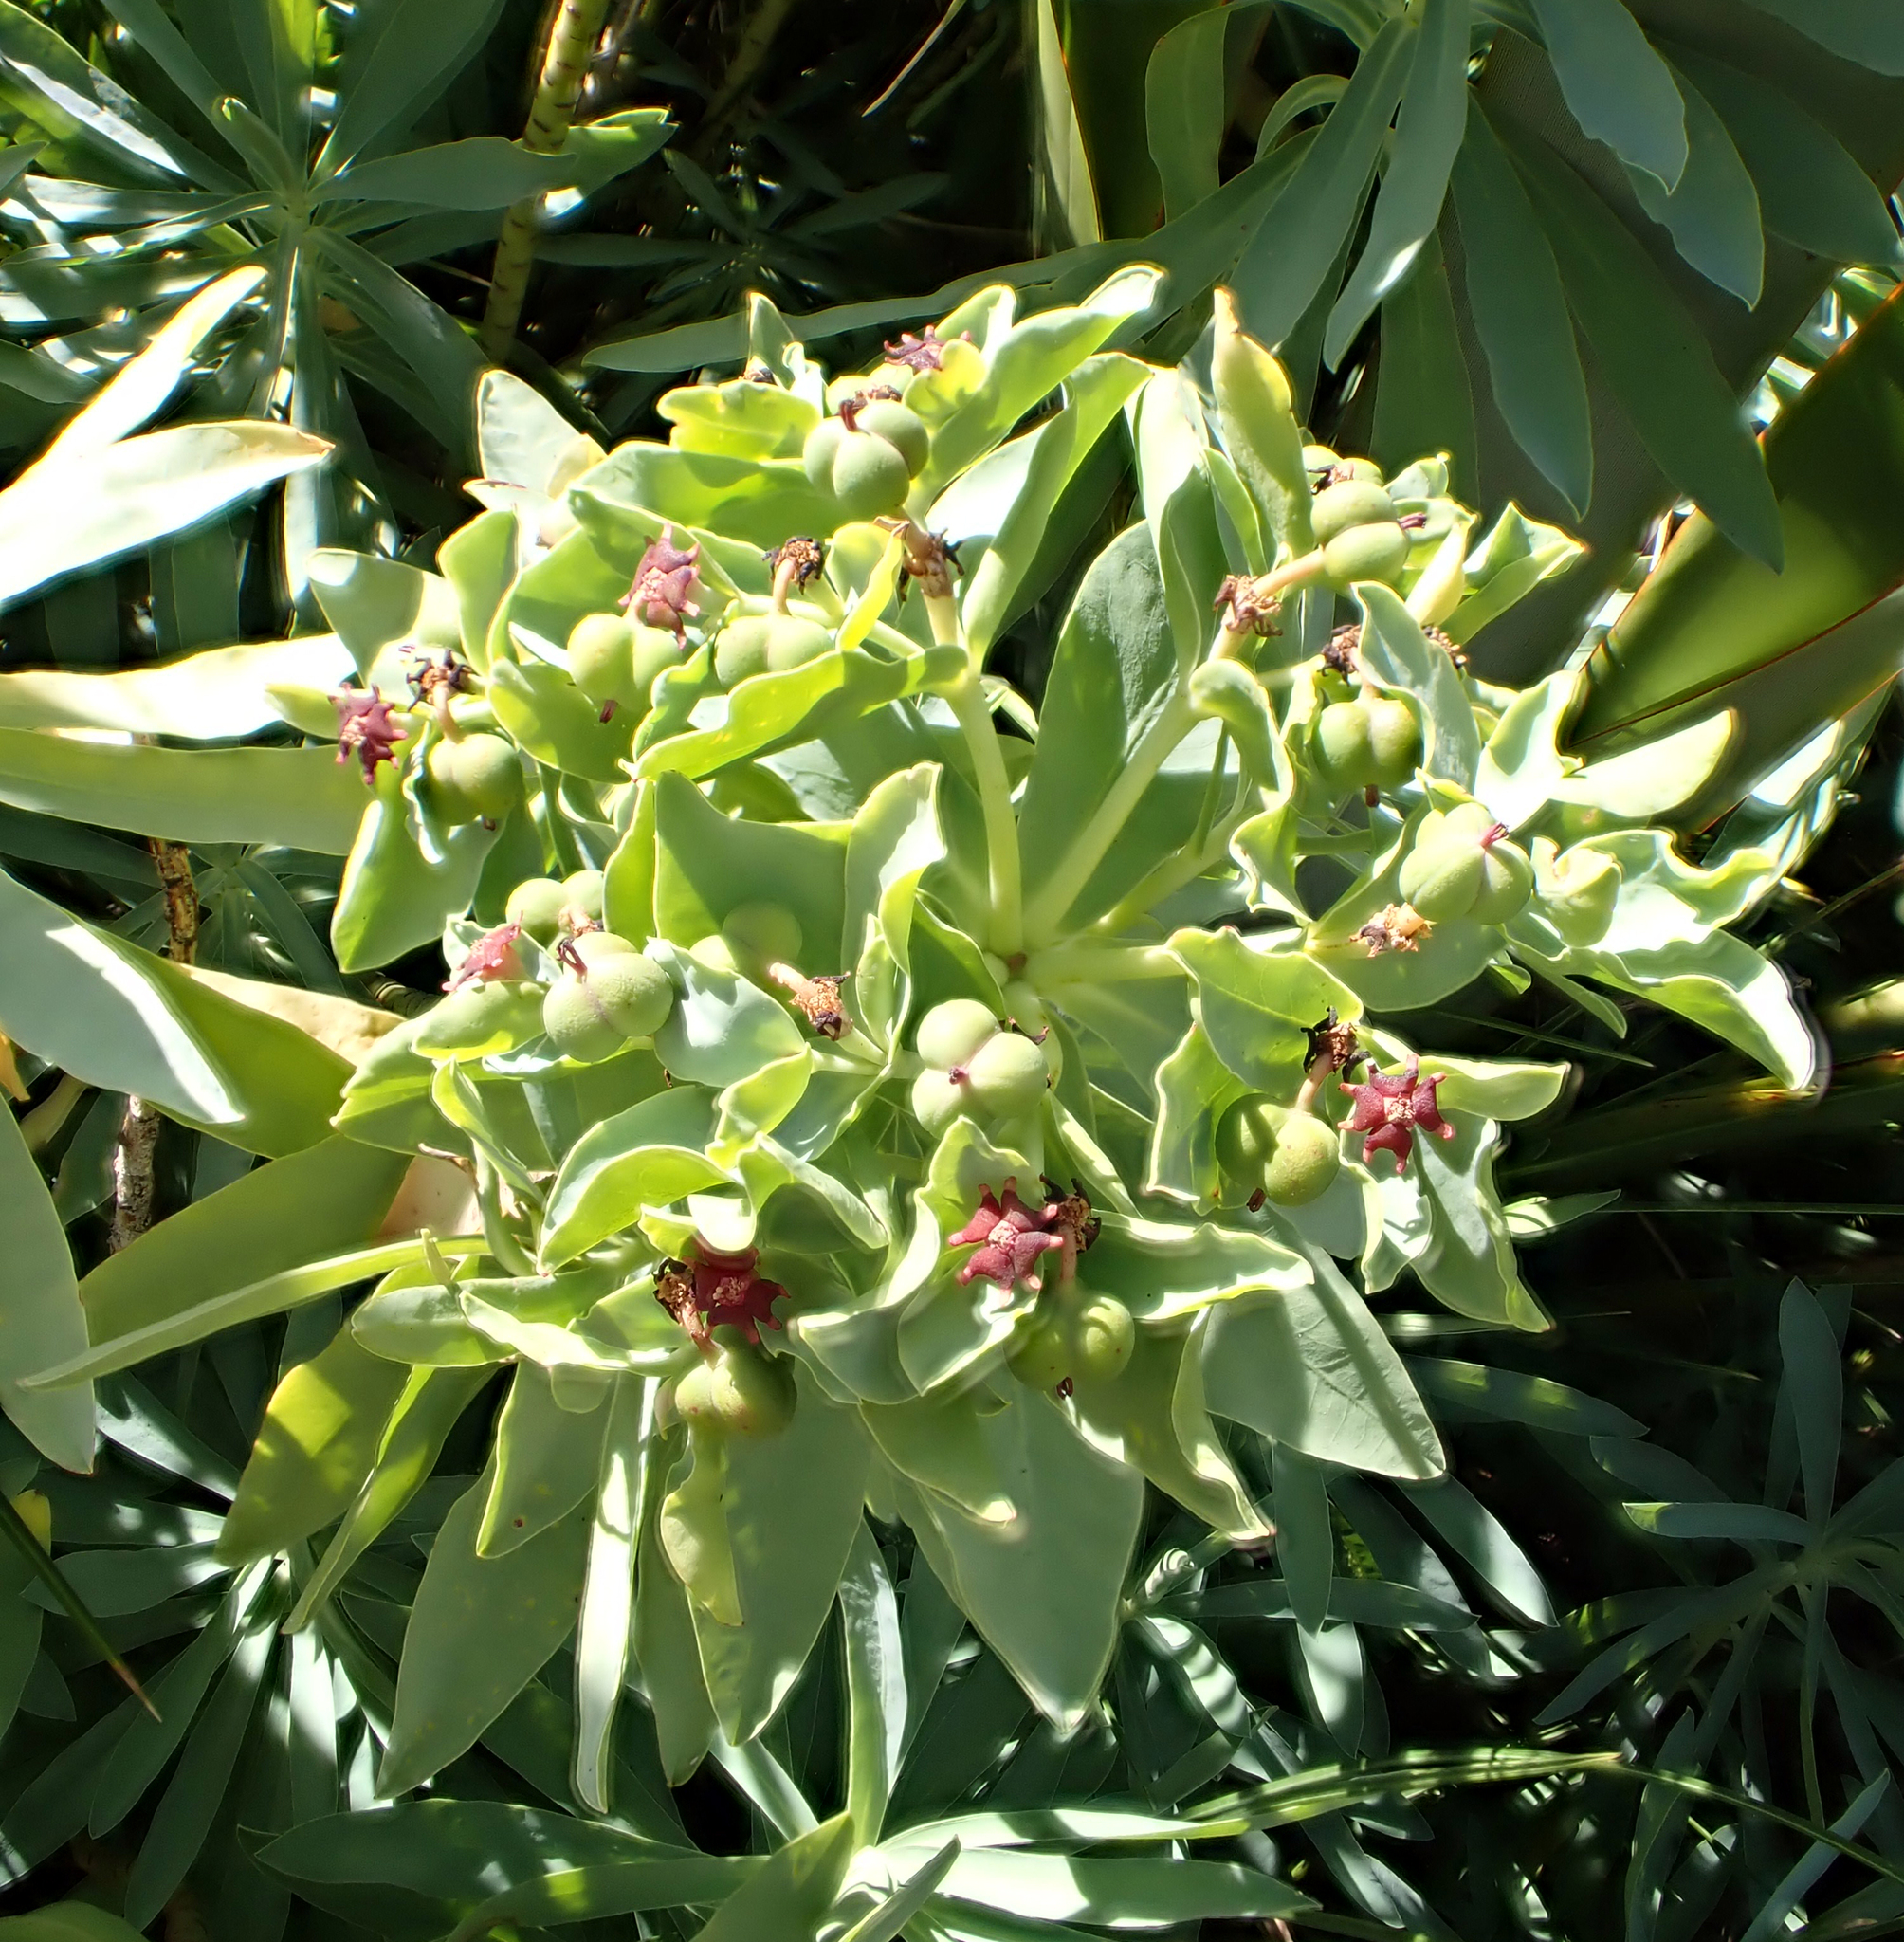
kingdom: Plantae
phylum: Tracheophyta
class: Magnoliopsida
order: Malpighiales
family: Euphorbiaceae
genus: Euphorbia
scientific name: Euphorbia glauca
